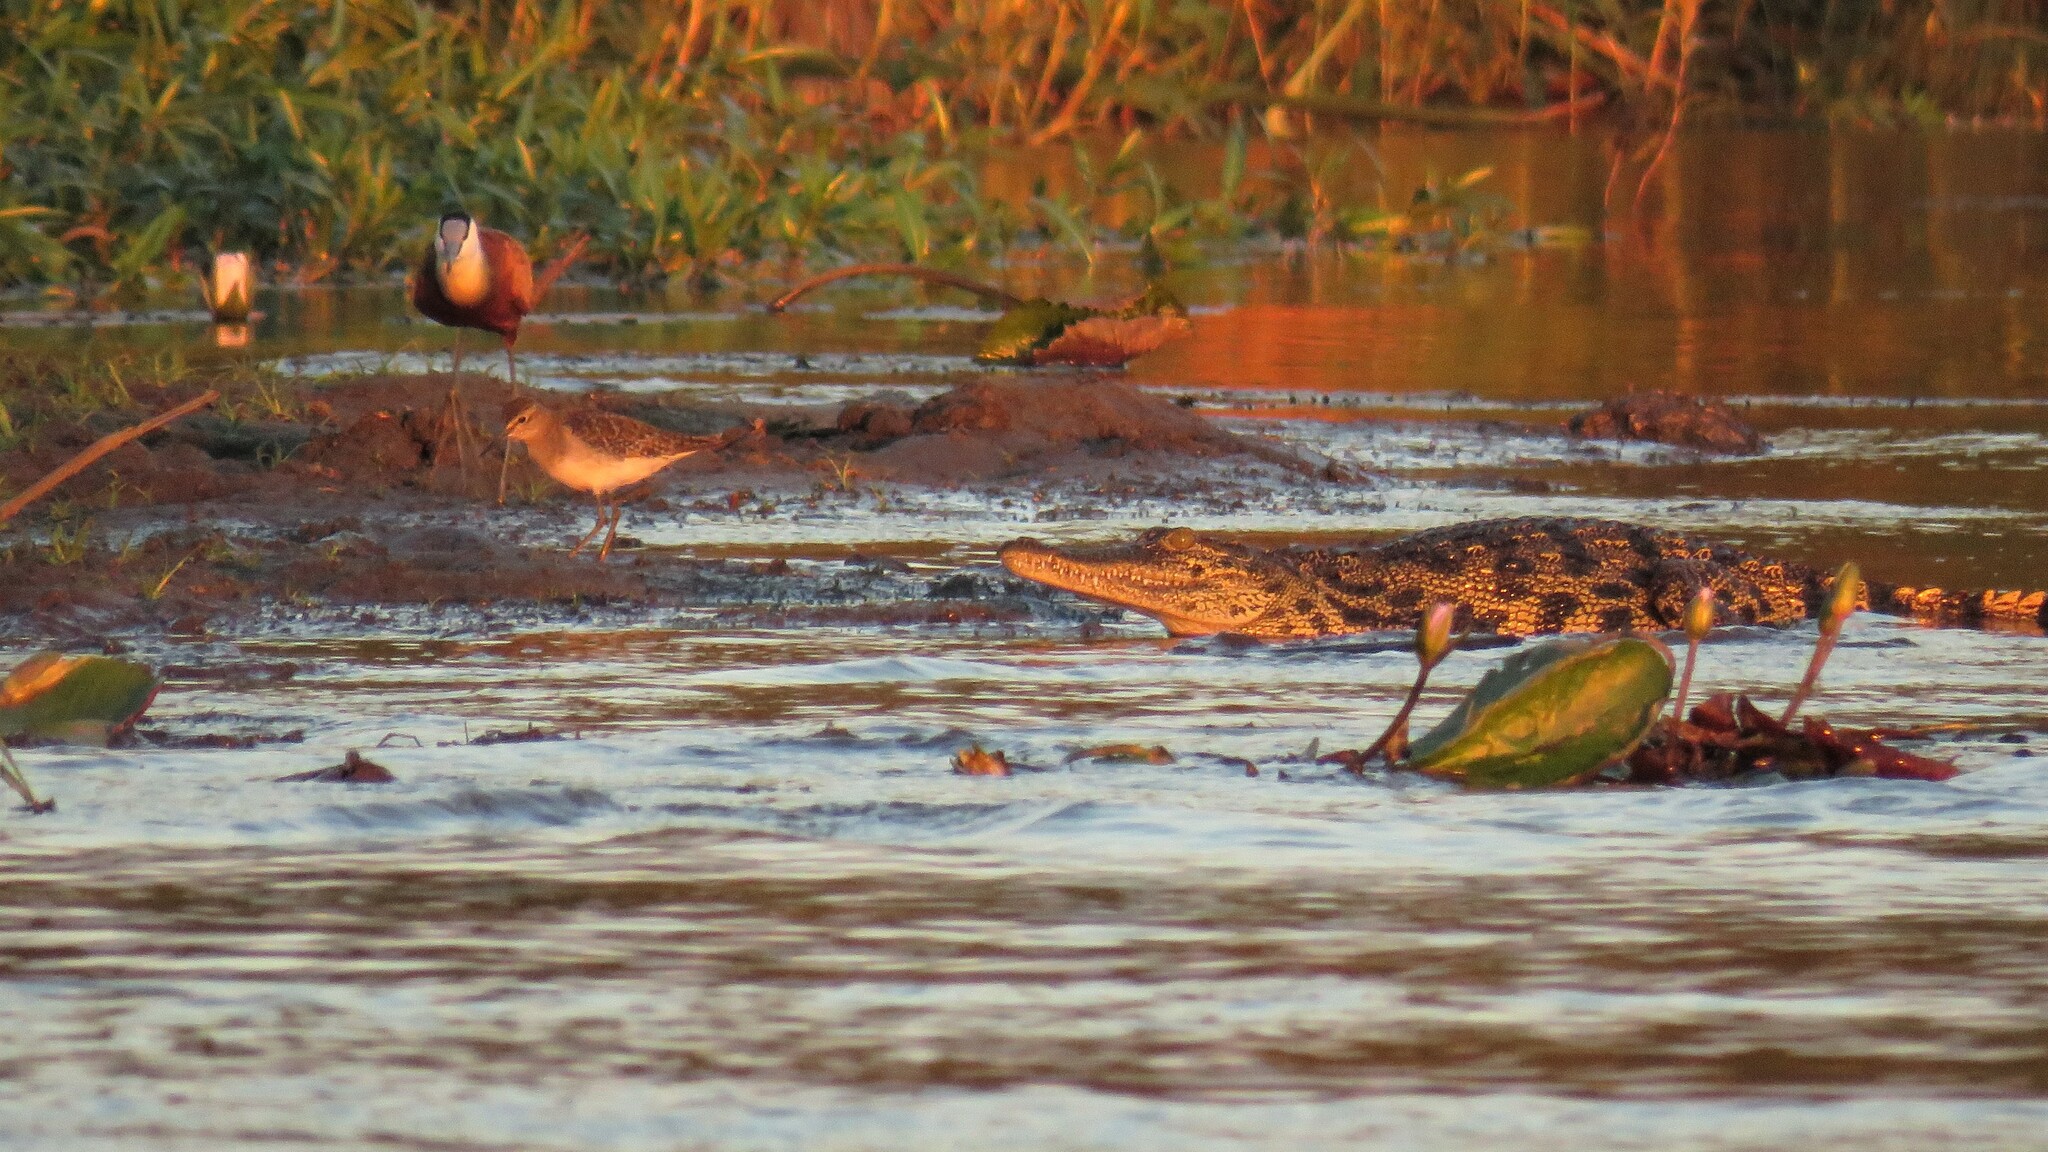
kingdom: Animalia
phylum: Chordata
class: Crocodylia
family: Crocodylidae
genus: Crocodylus
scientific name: Crocodylus niloticus
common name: Nile crocodile
